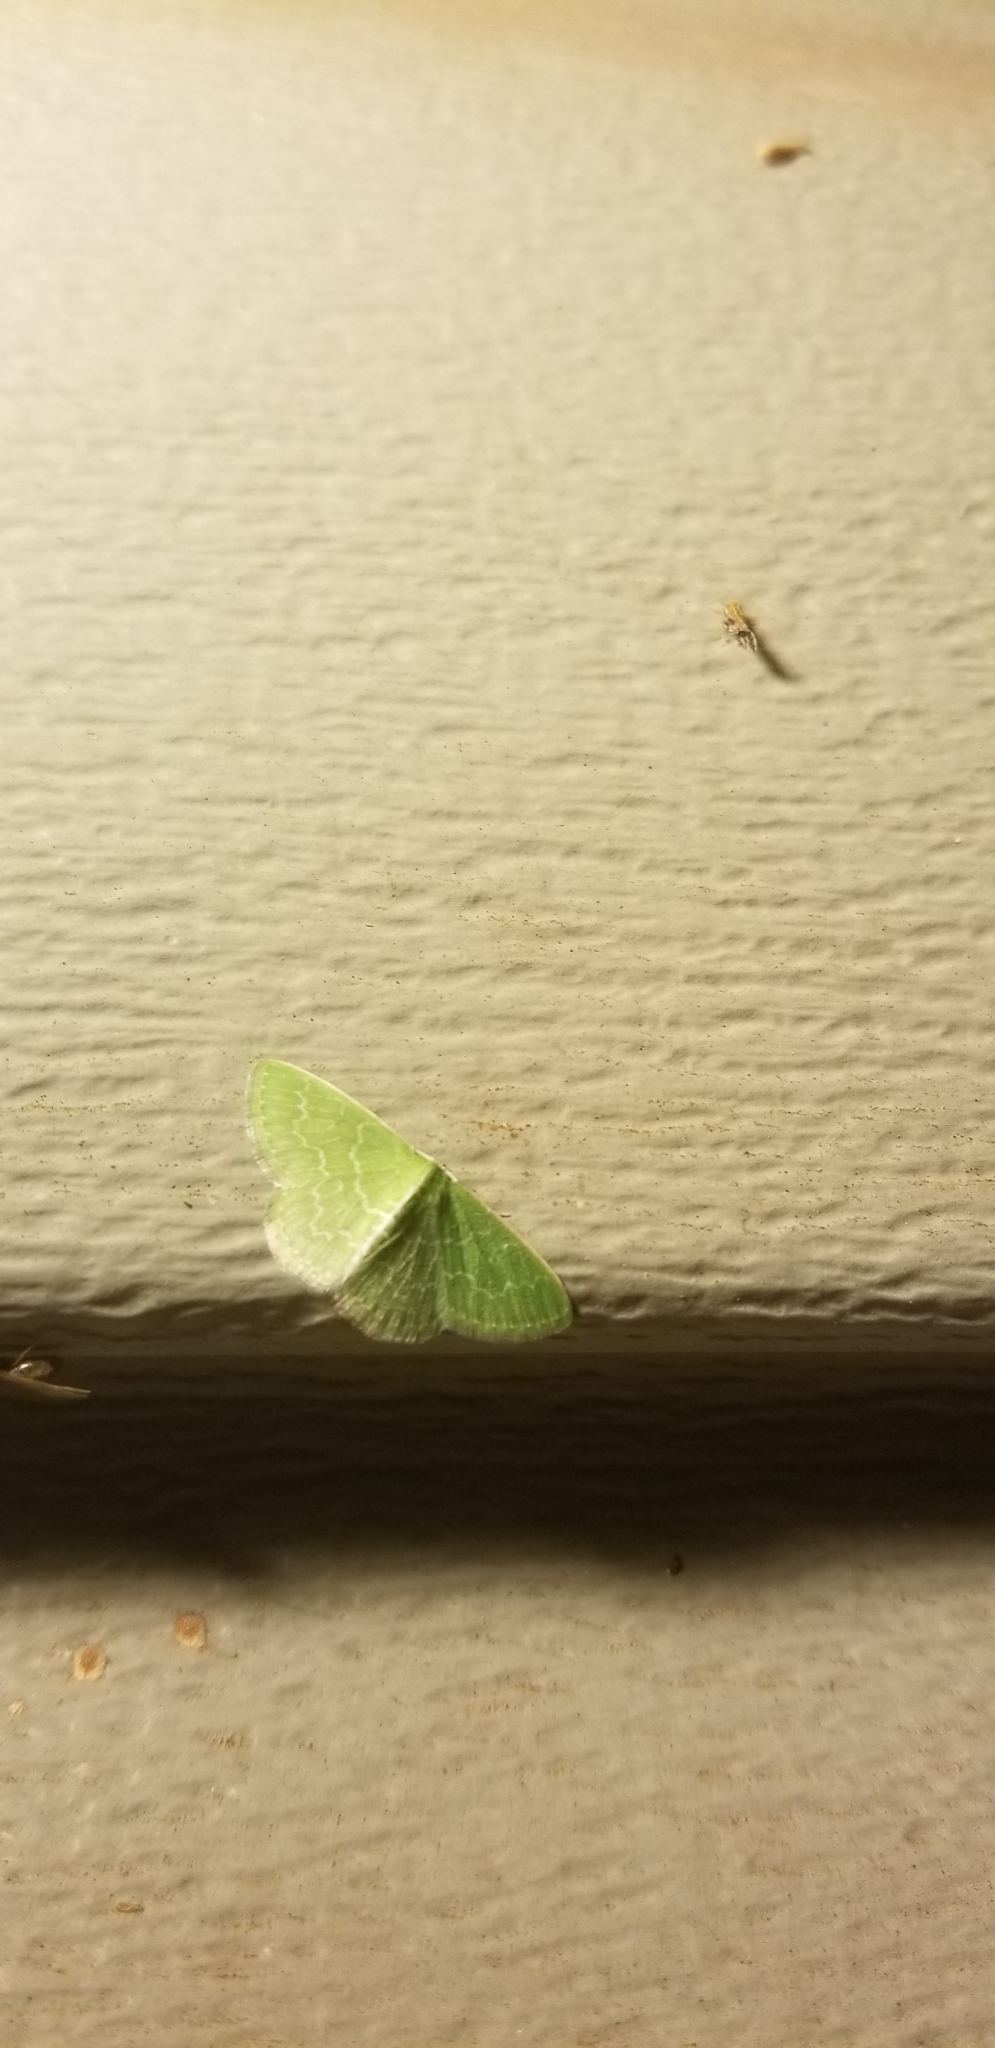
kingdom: Animalia
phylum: Arthropoda
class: Insecta
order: Lepidoptera
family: Geometridae
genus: Synchlora
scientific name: Synchlora frondaria
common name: Southern emerald
